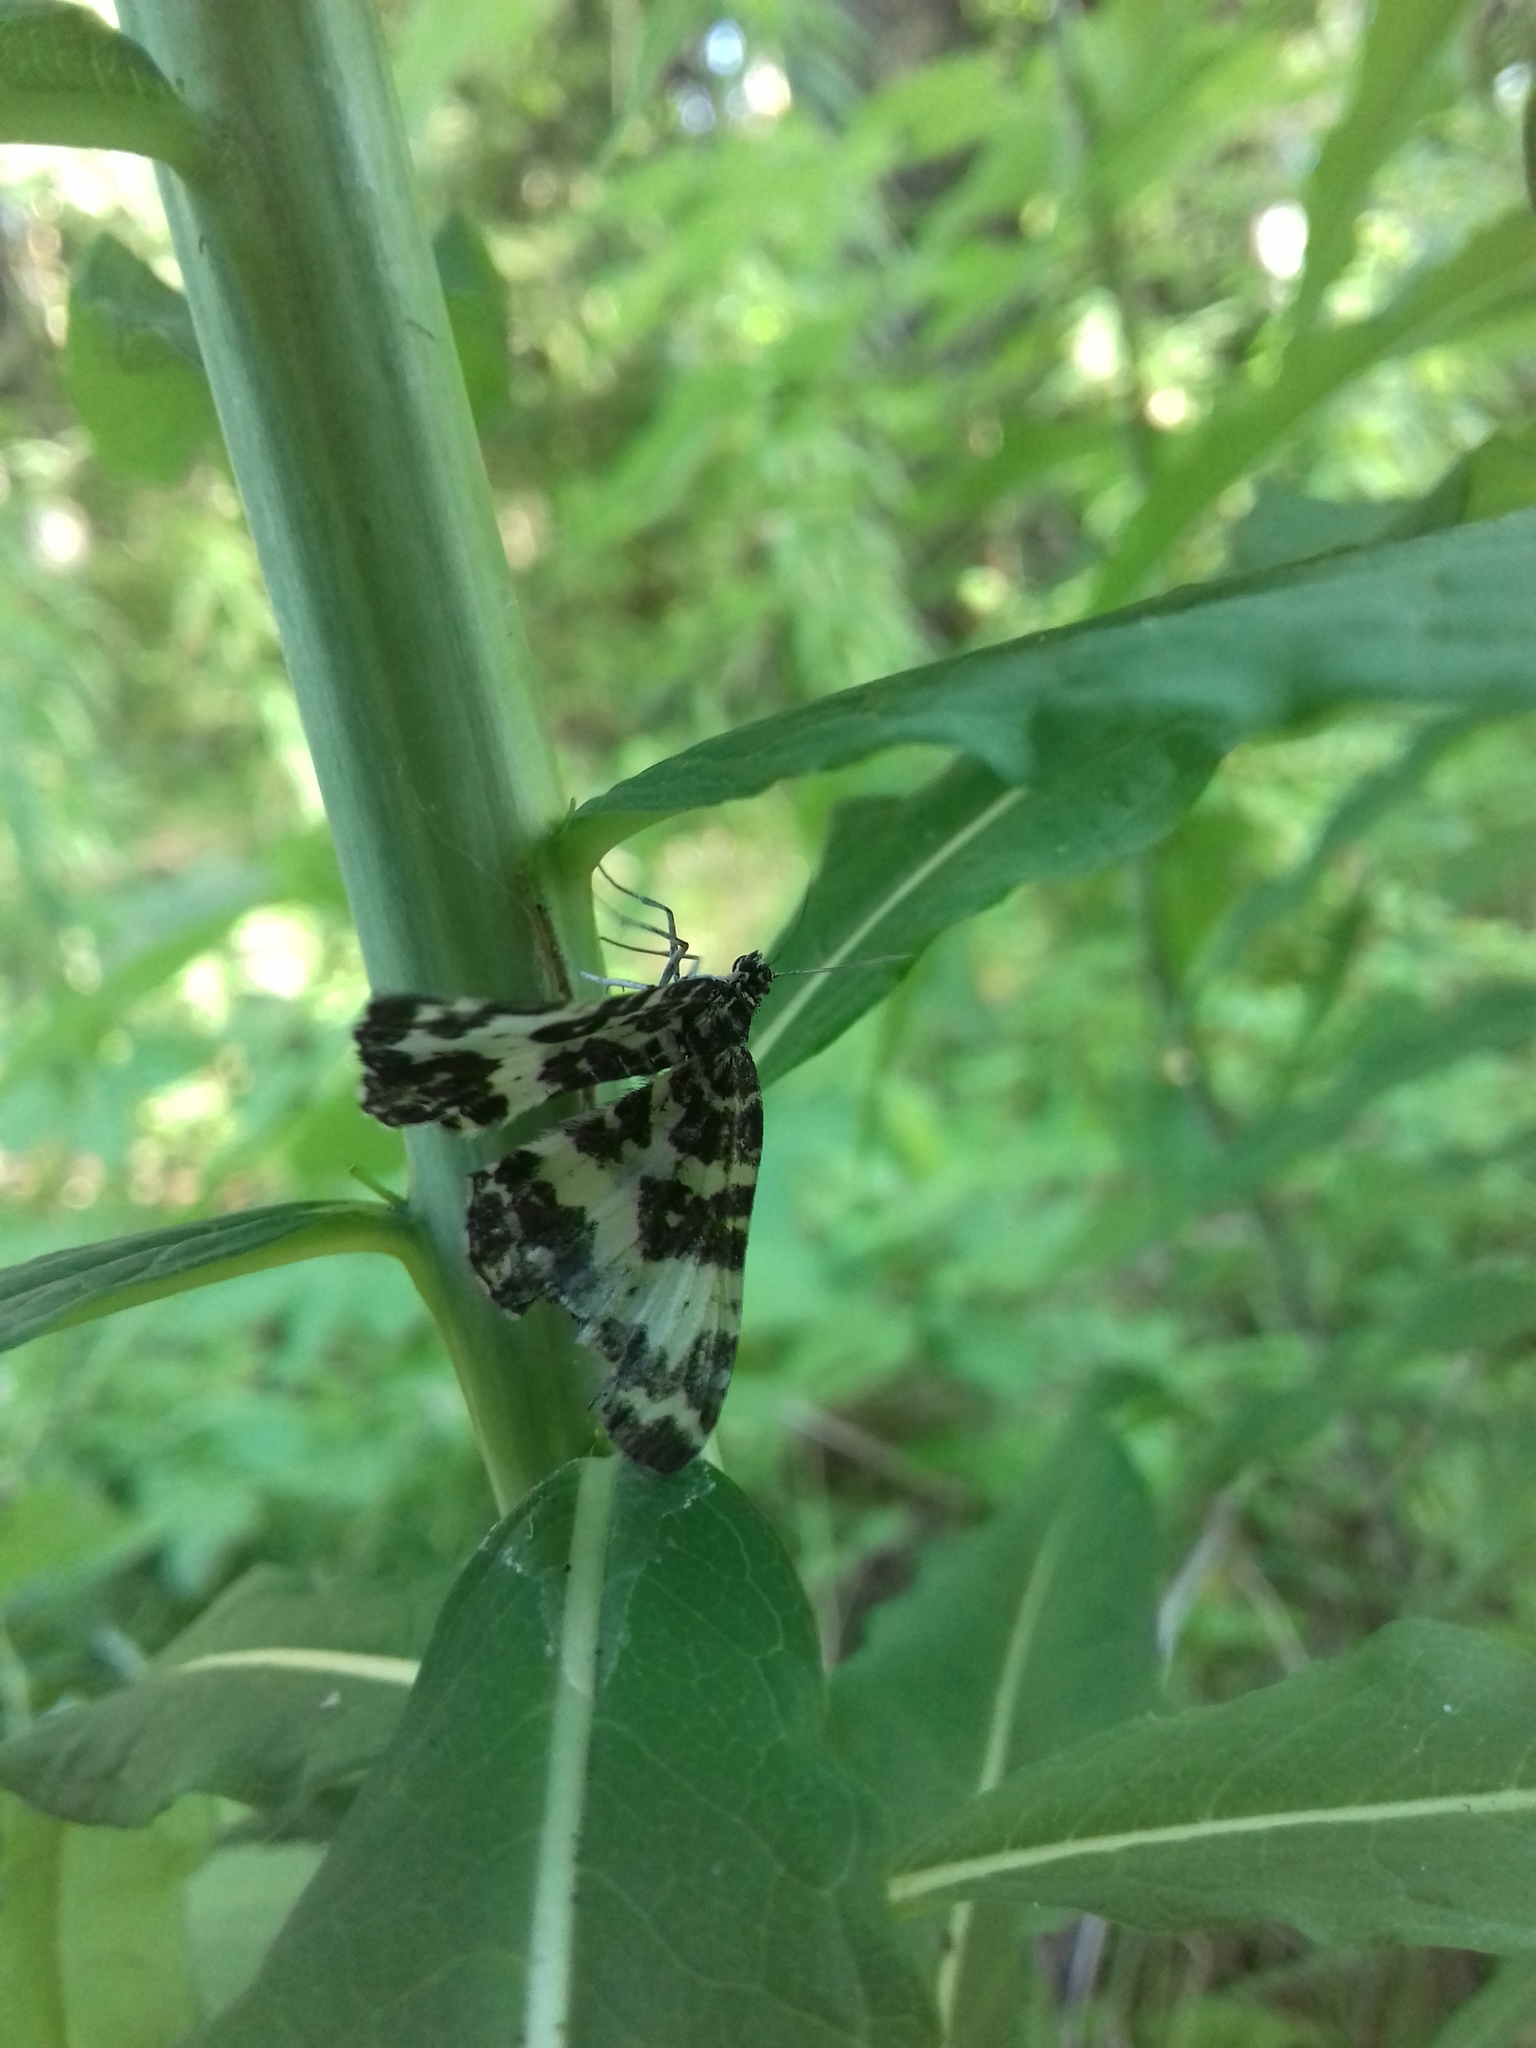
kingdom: Animalia
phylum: Arthropoda
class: Insecta
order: Lepidoptera
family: Geometridae
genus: Rheumaptera
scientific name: Rheumaptera hastata
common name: Argent & sable
